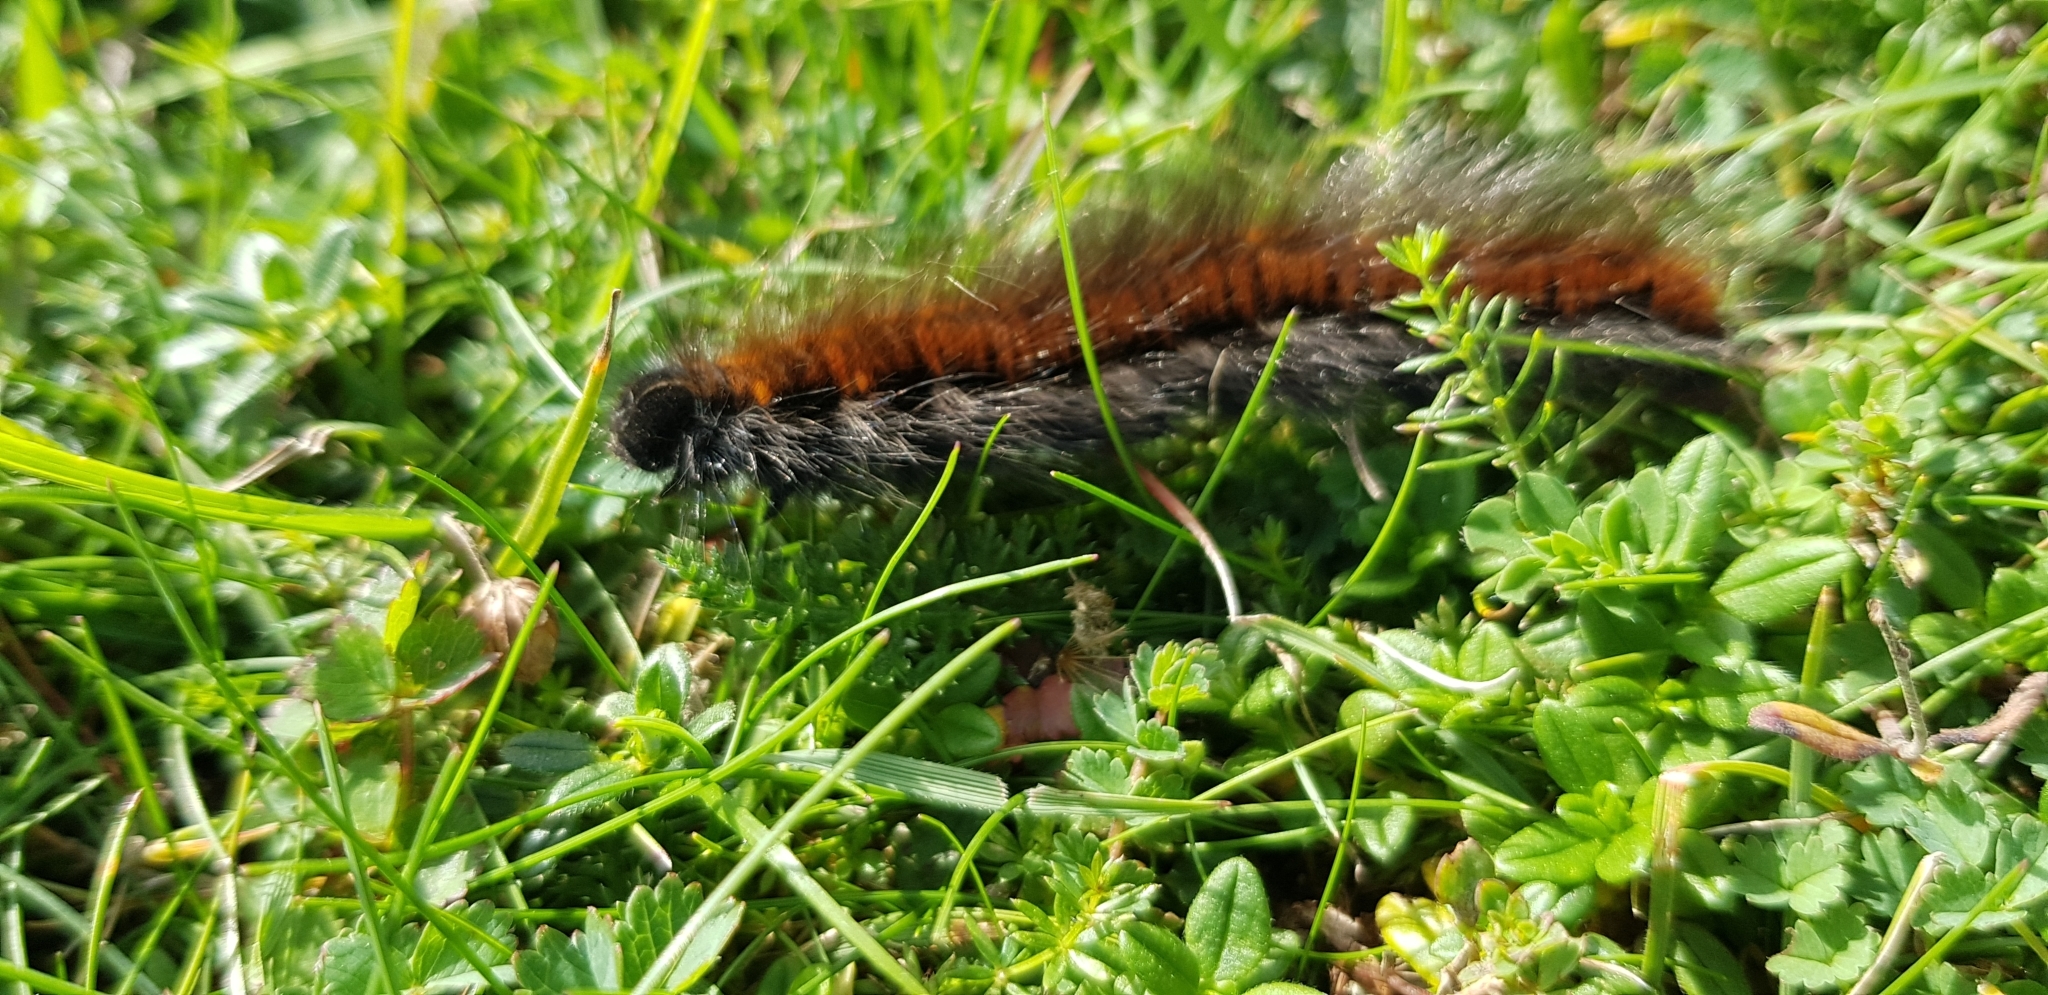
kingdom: Animalia
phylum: Arthropoda
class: Insecta
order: Lepidoptera
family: Lasiocampidae
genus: Macrothylacia
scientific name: Macrothylacia rubi
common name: Fox moth
